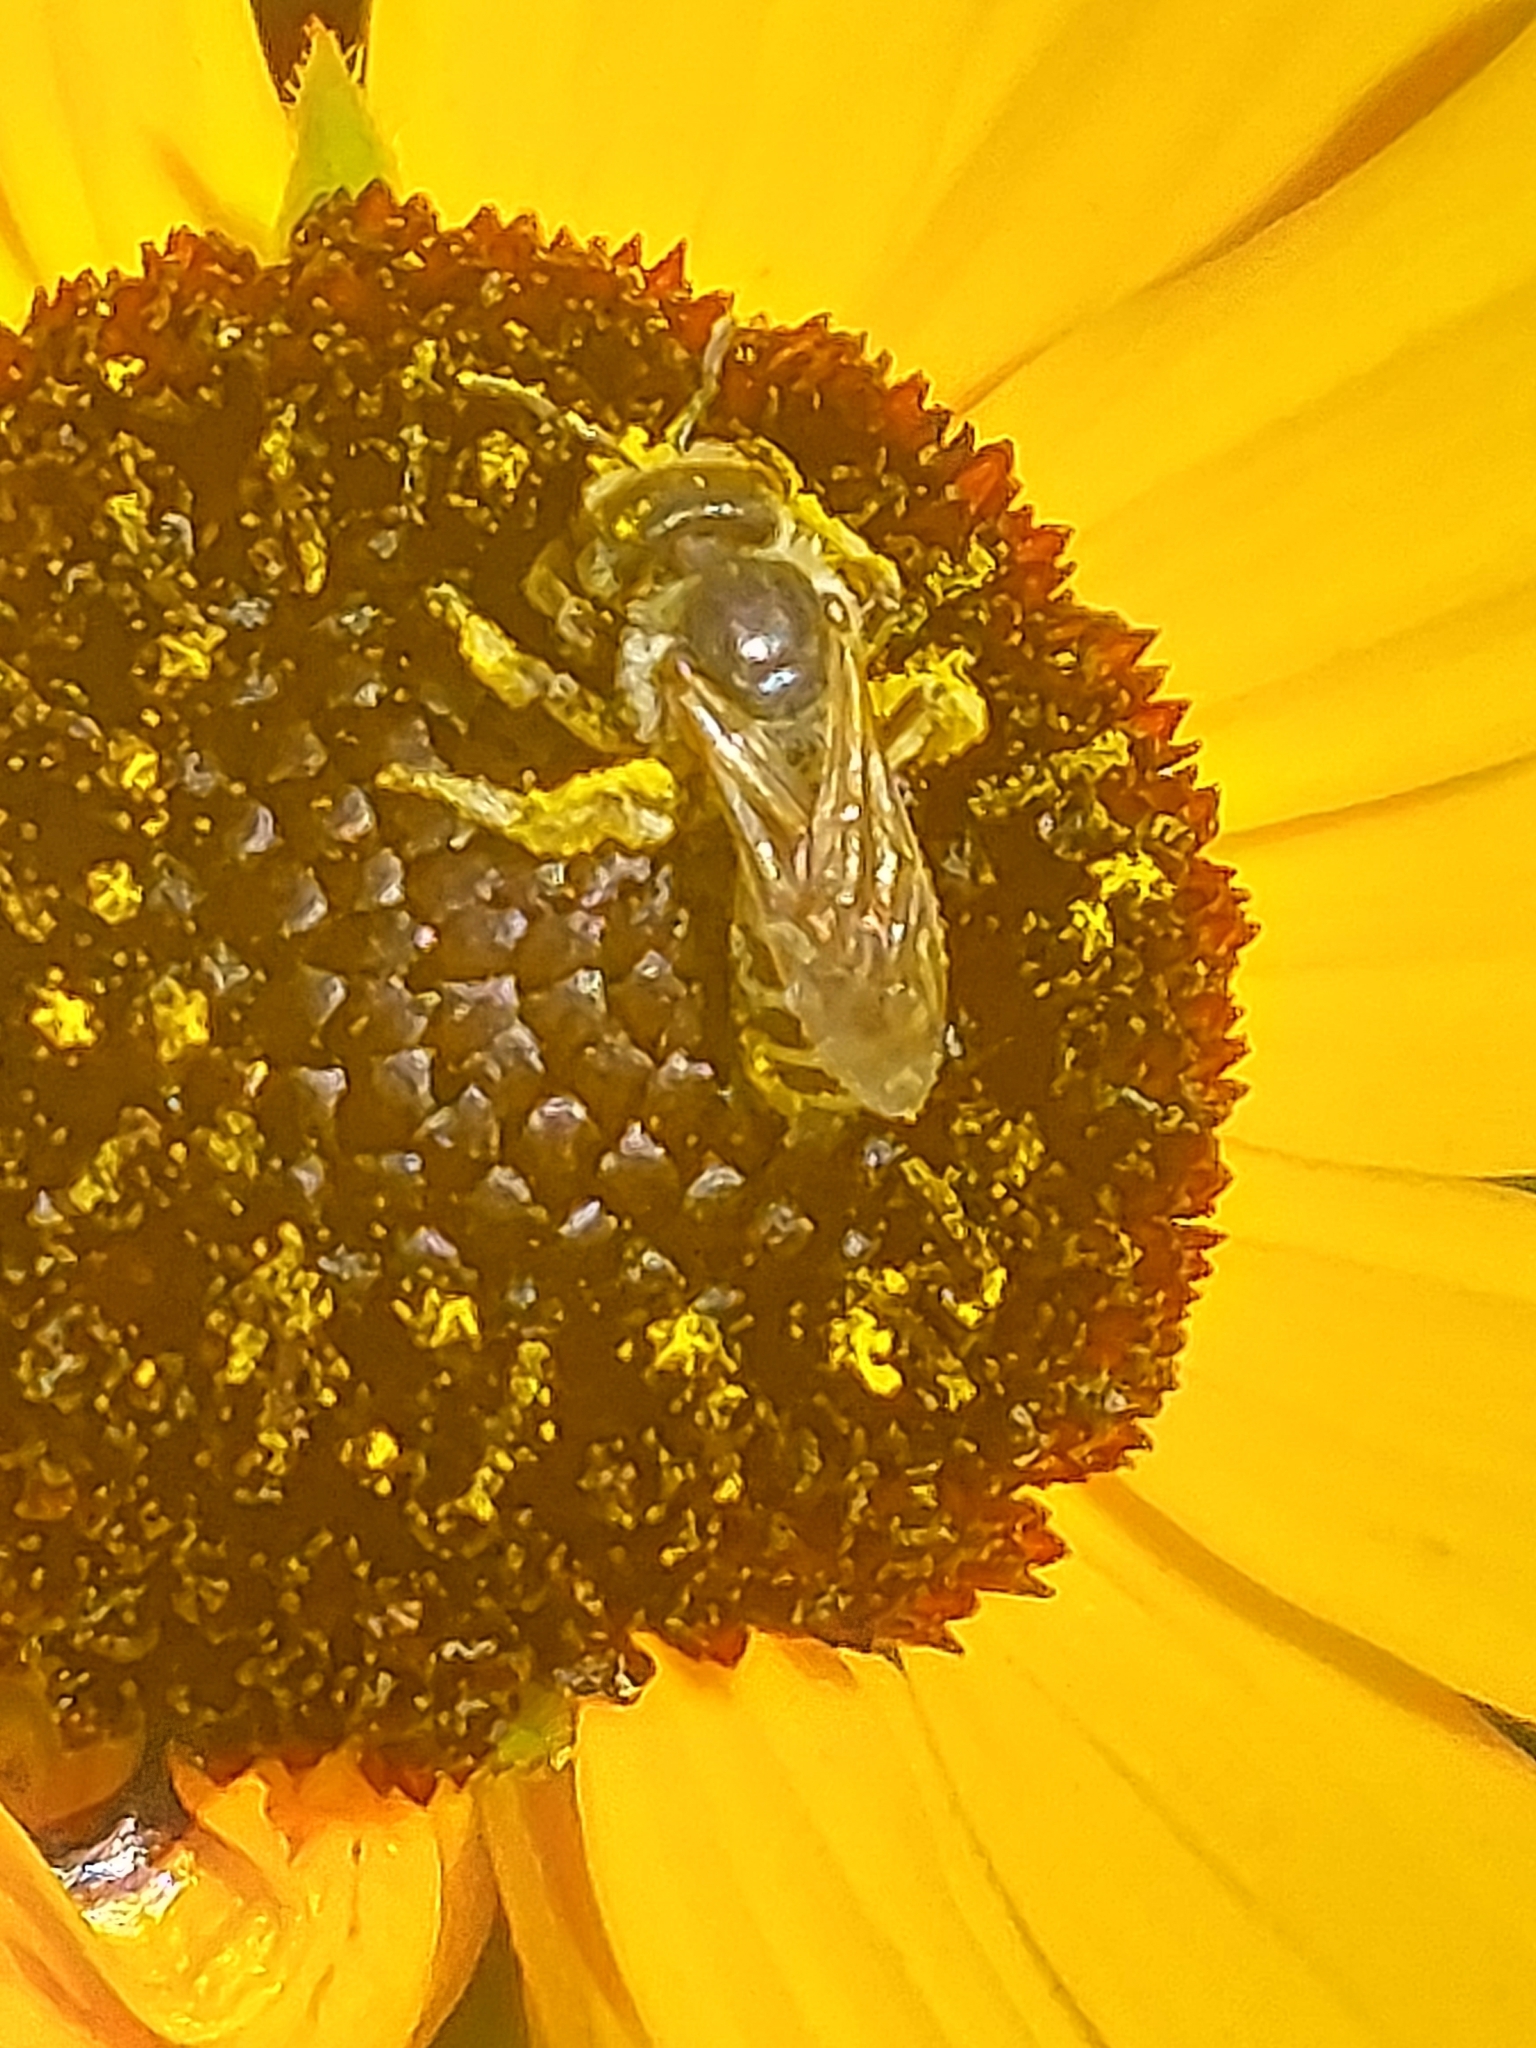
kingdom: Animalia
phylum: Arthropoda
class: Insecta
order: Hymenoptera
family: Halictidae
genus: Halictus
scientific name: Halictus ligatus
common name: Ligated furrow bee
